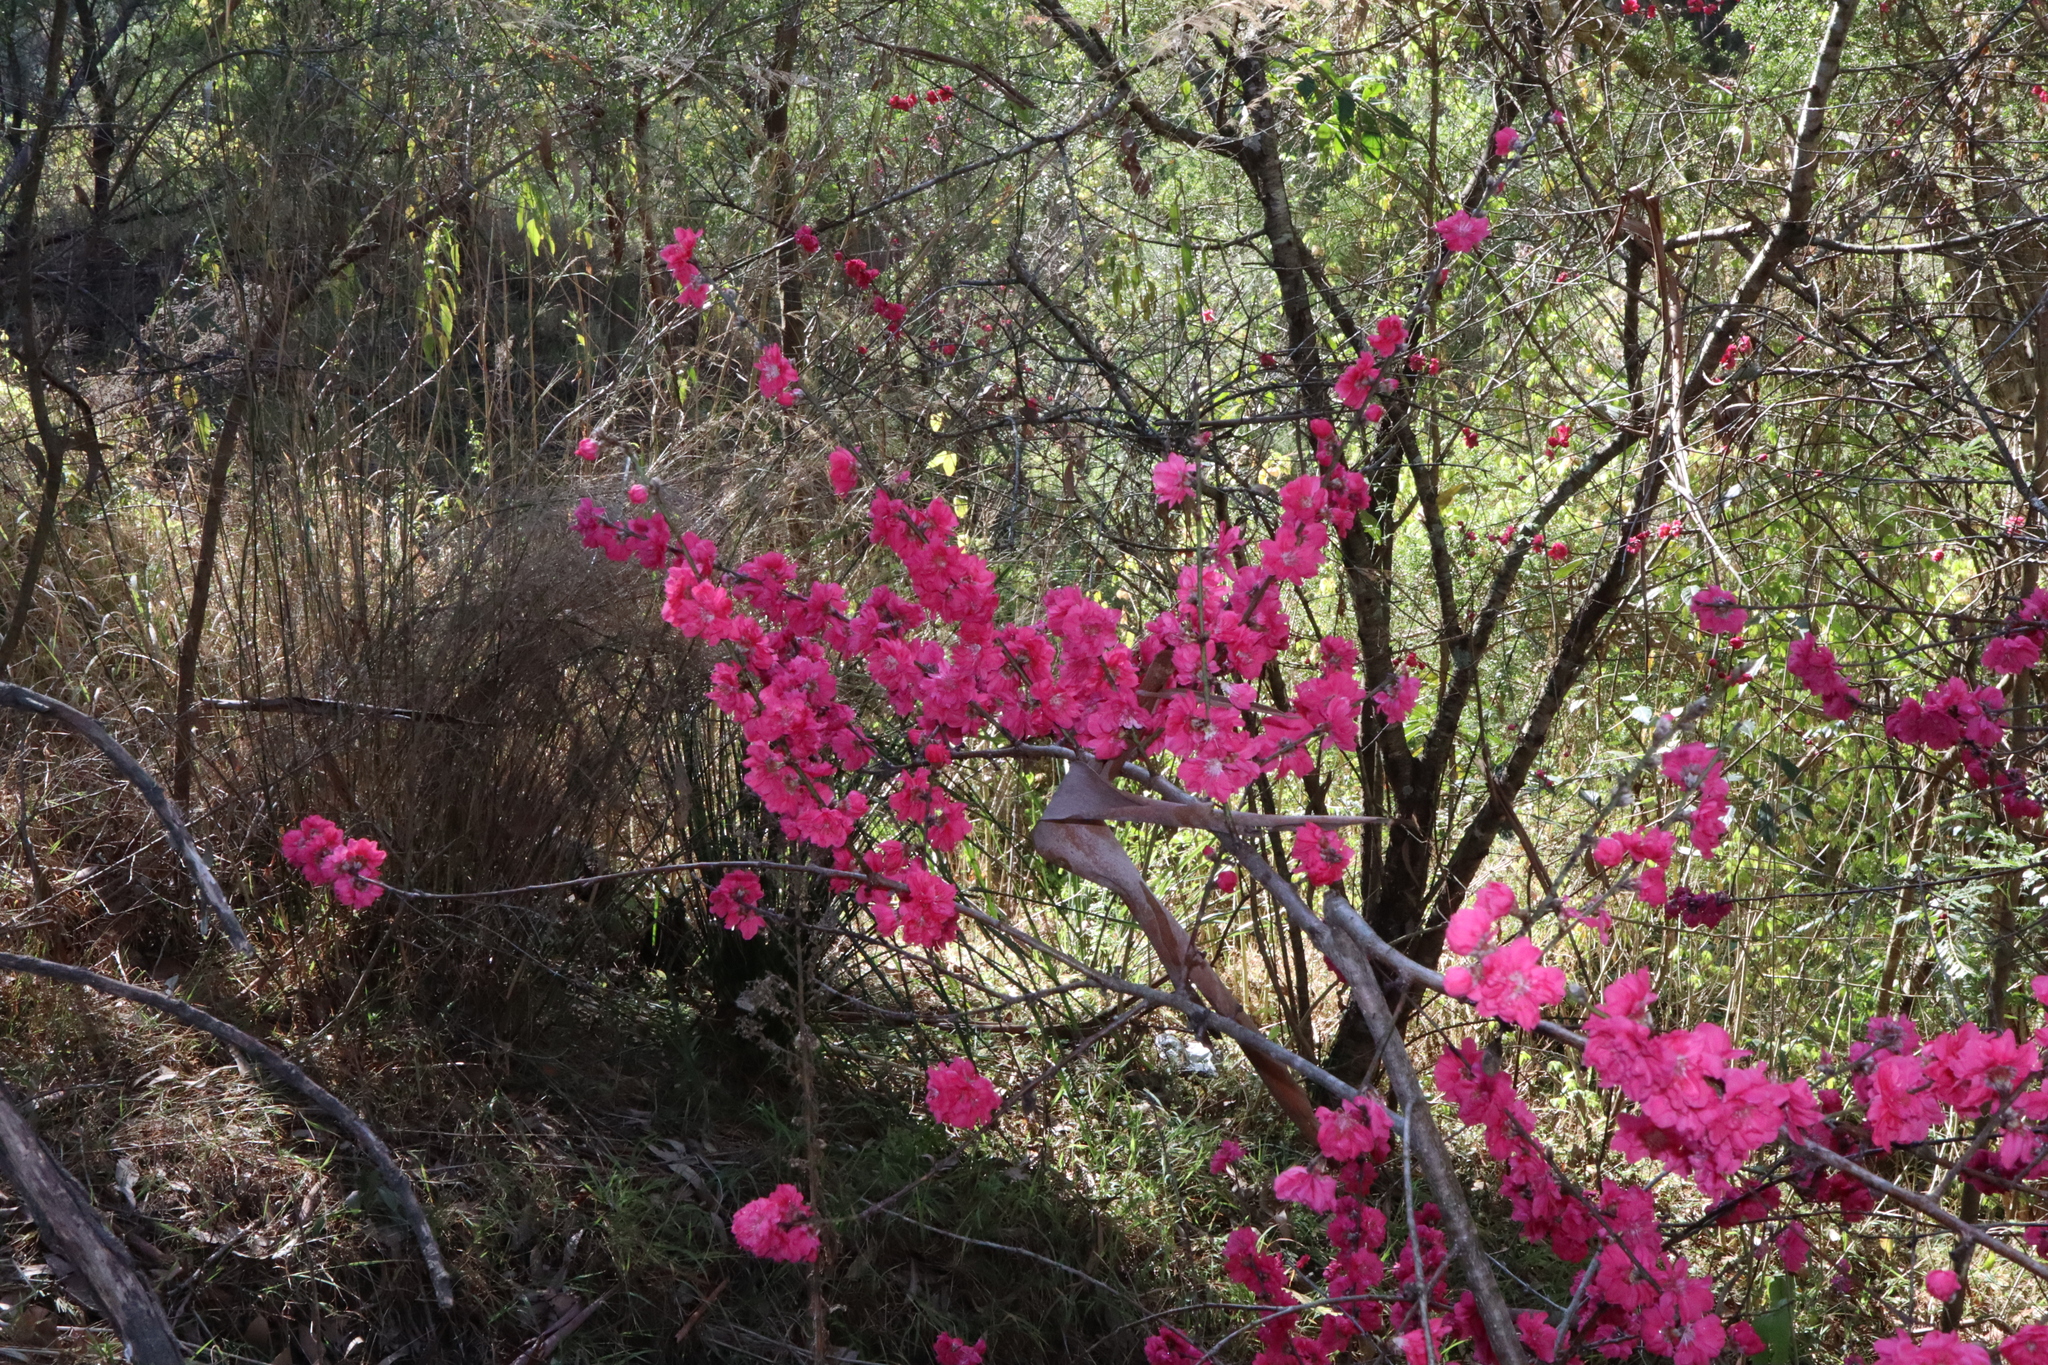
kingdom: Plantae
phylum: Tracheophyta
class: Magnoliopsida
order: Rosales
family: Rosaceae
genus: Prunus
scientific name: Prunus persica
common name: Peach
